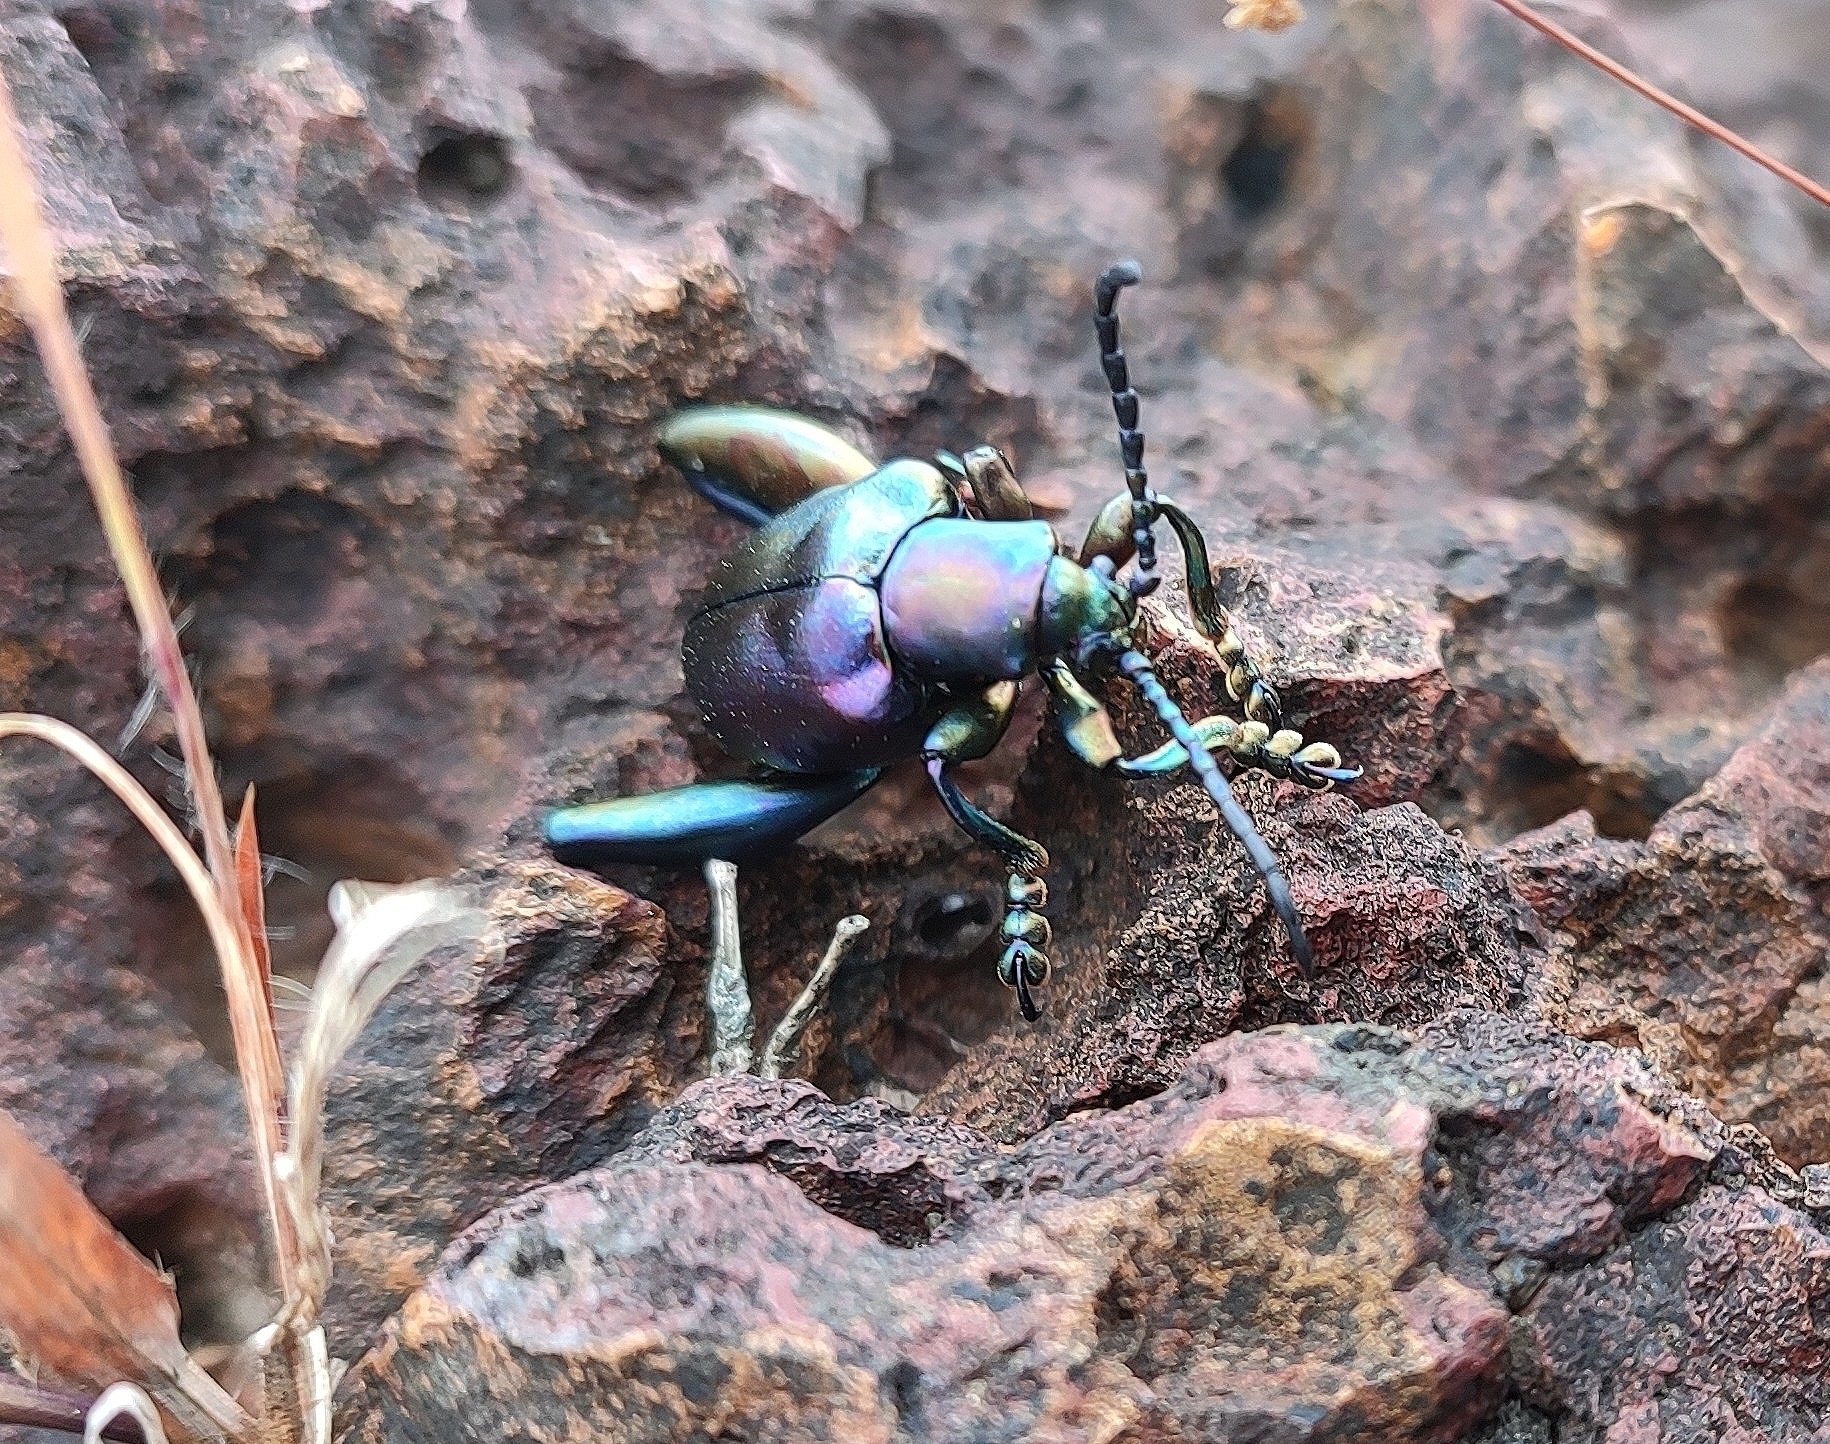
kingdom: Animalia
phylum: Arthropoda
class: Insecta
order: Coleoptera
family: Chrysomelidae
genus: Sagra
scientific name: Sagra femorata
